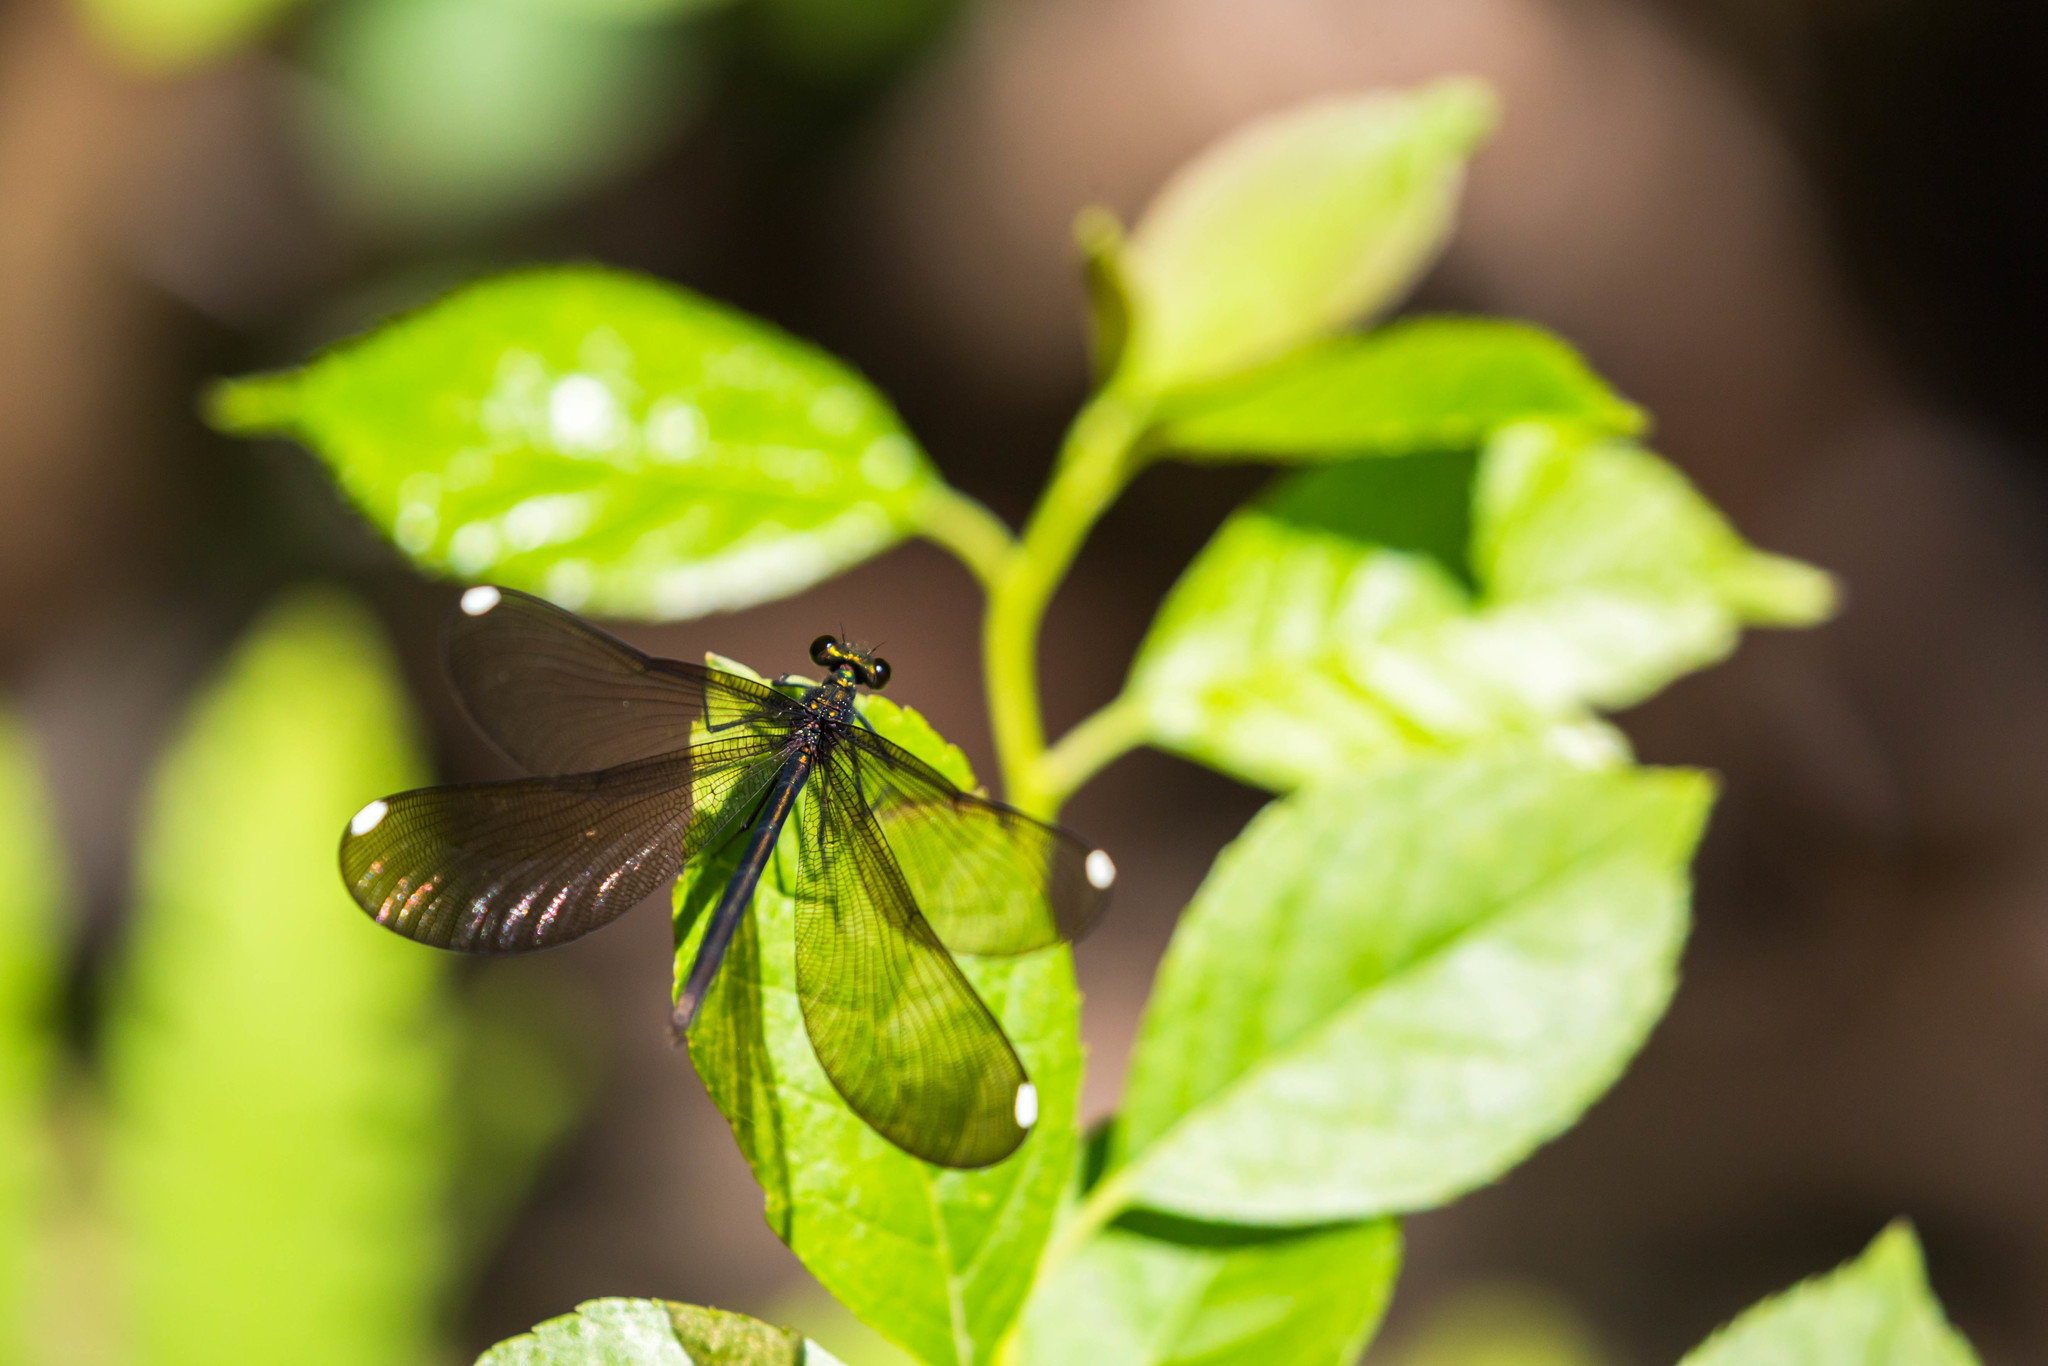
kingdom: Animalia
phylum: Arthropoda
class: Insecta
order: Odonata
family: Calopterygidae
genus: Calopteryx
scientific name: Calopteryx maculata
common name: Ebony jewelwing
